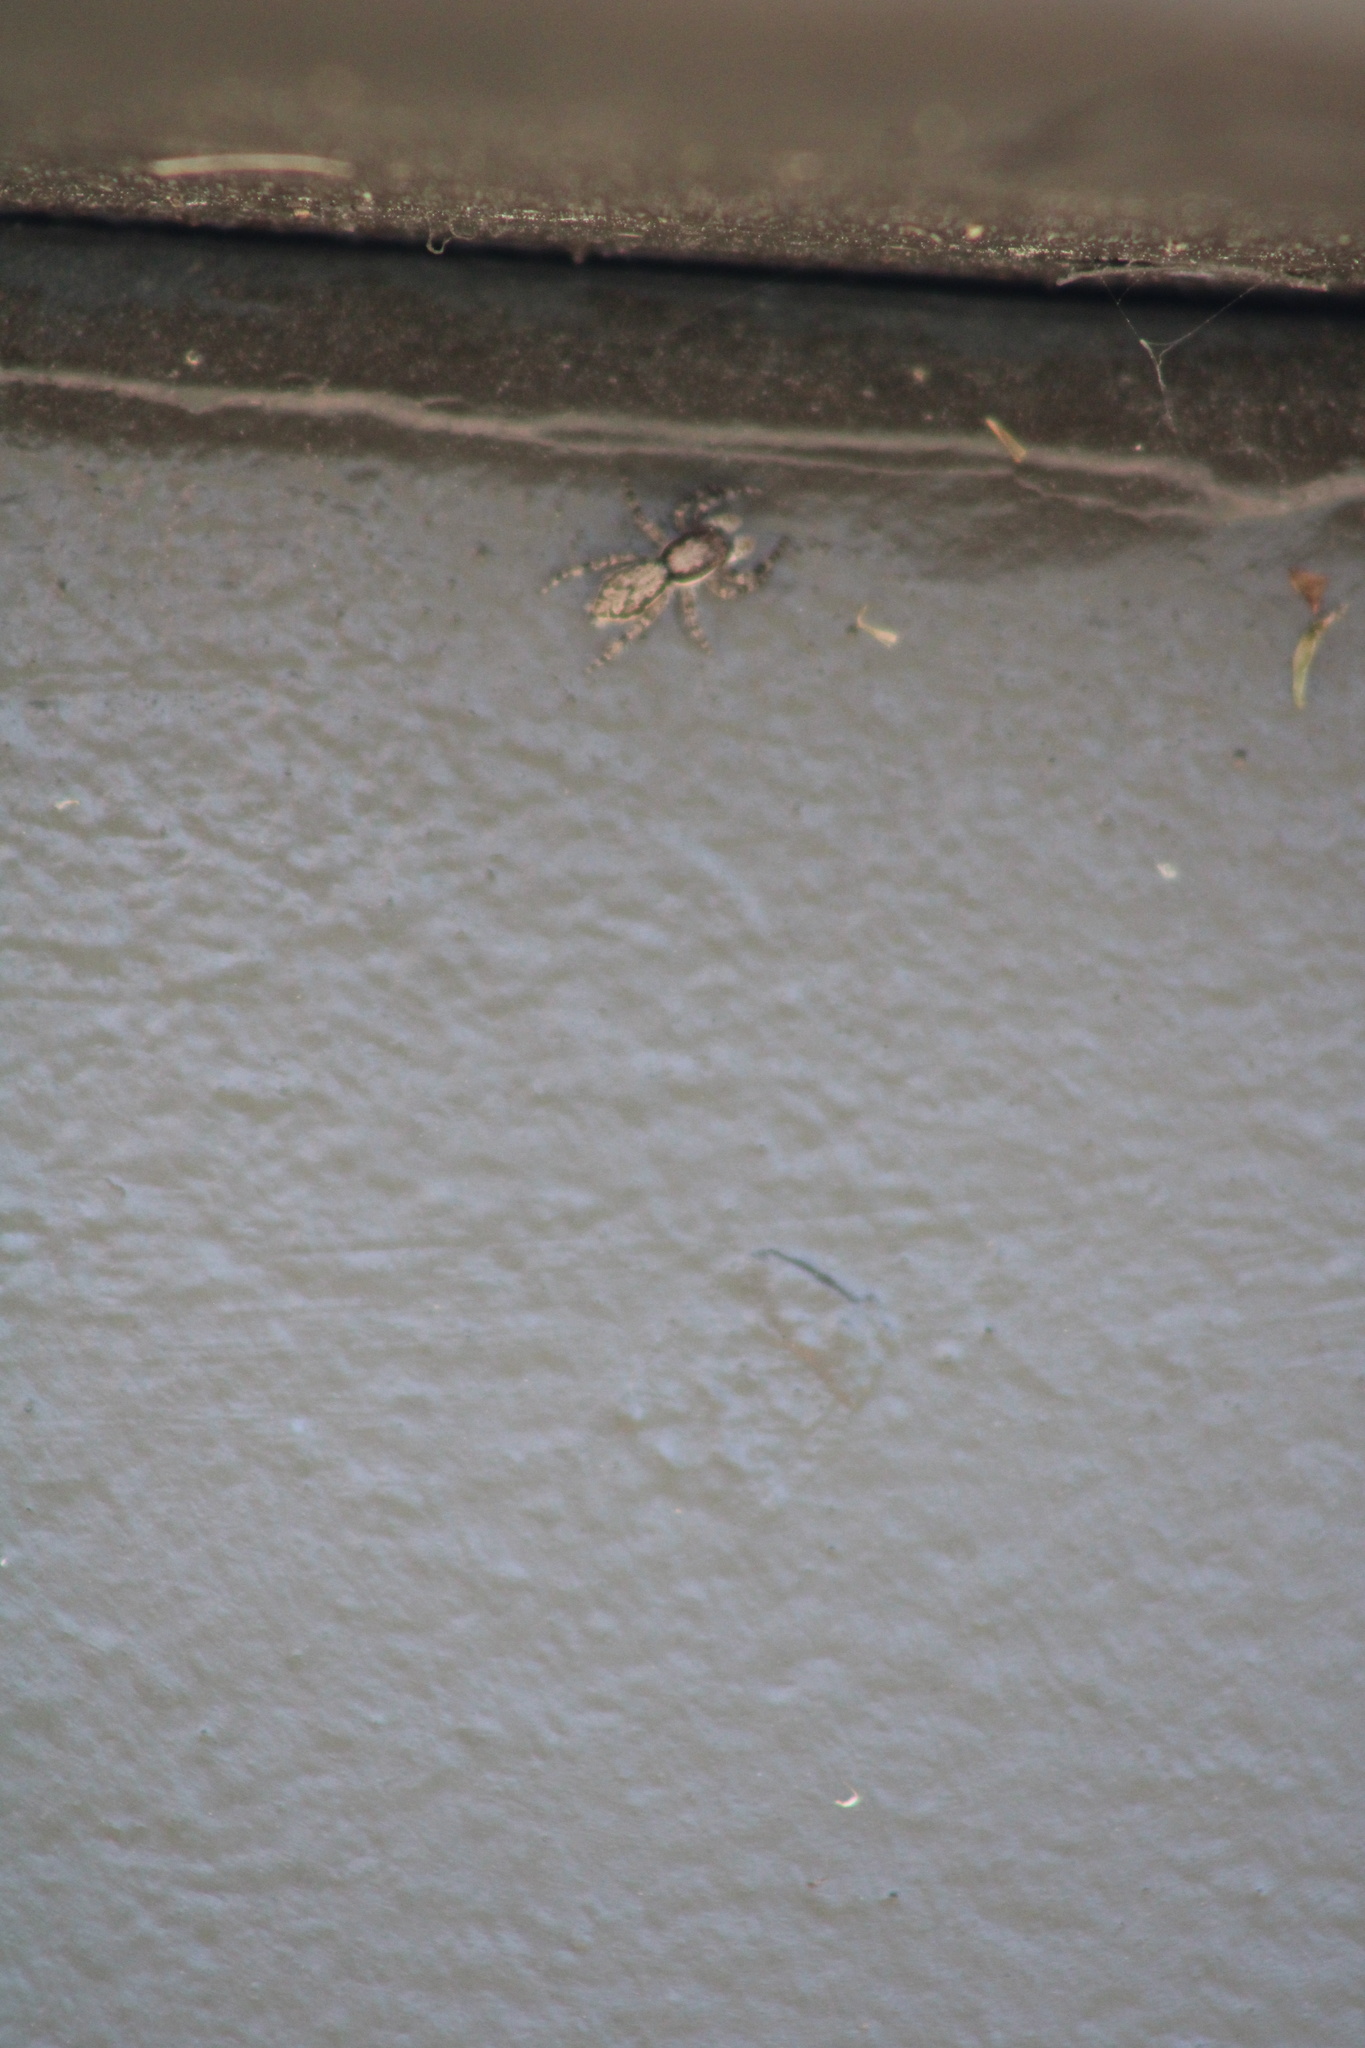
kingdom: Animalia
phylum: Arthropoda
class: Arachnida
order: Araneae
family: Salticidae
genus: Menemerus
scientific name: Menemerus bivittatus
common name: Gray wall jumper
